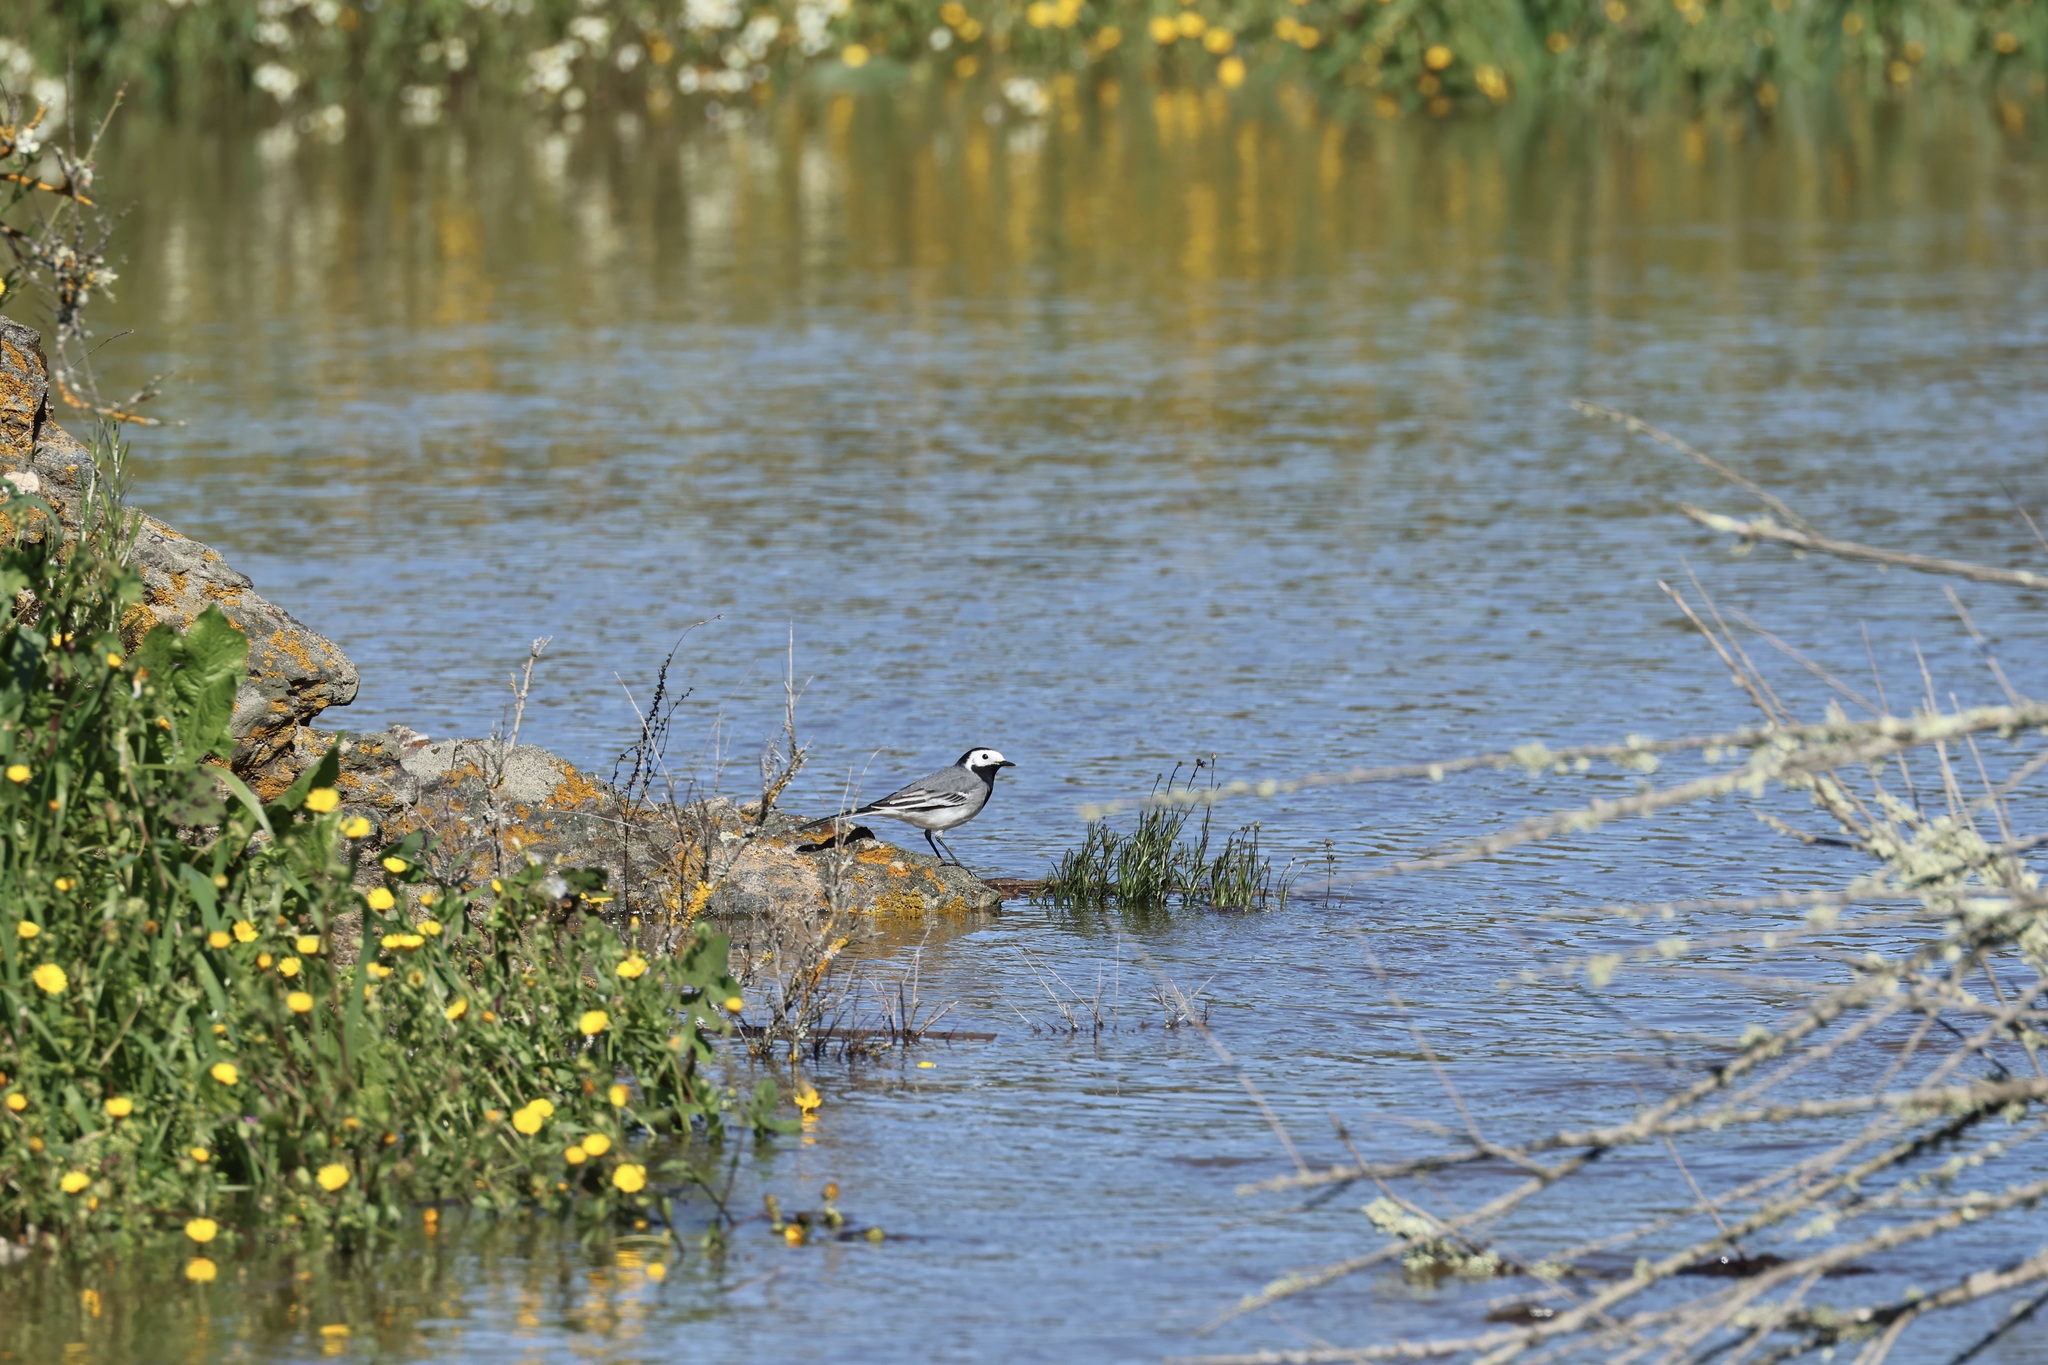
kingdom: Animalia
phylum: Chordata
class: Aves
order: Passeriformes
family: Motacillidae
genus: Motacilla
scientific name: Motacilla alba
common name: White wagtail
